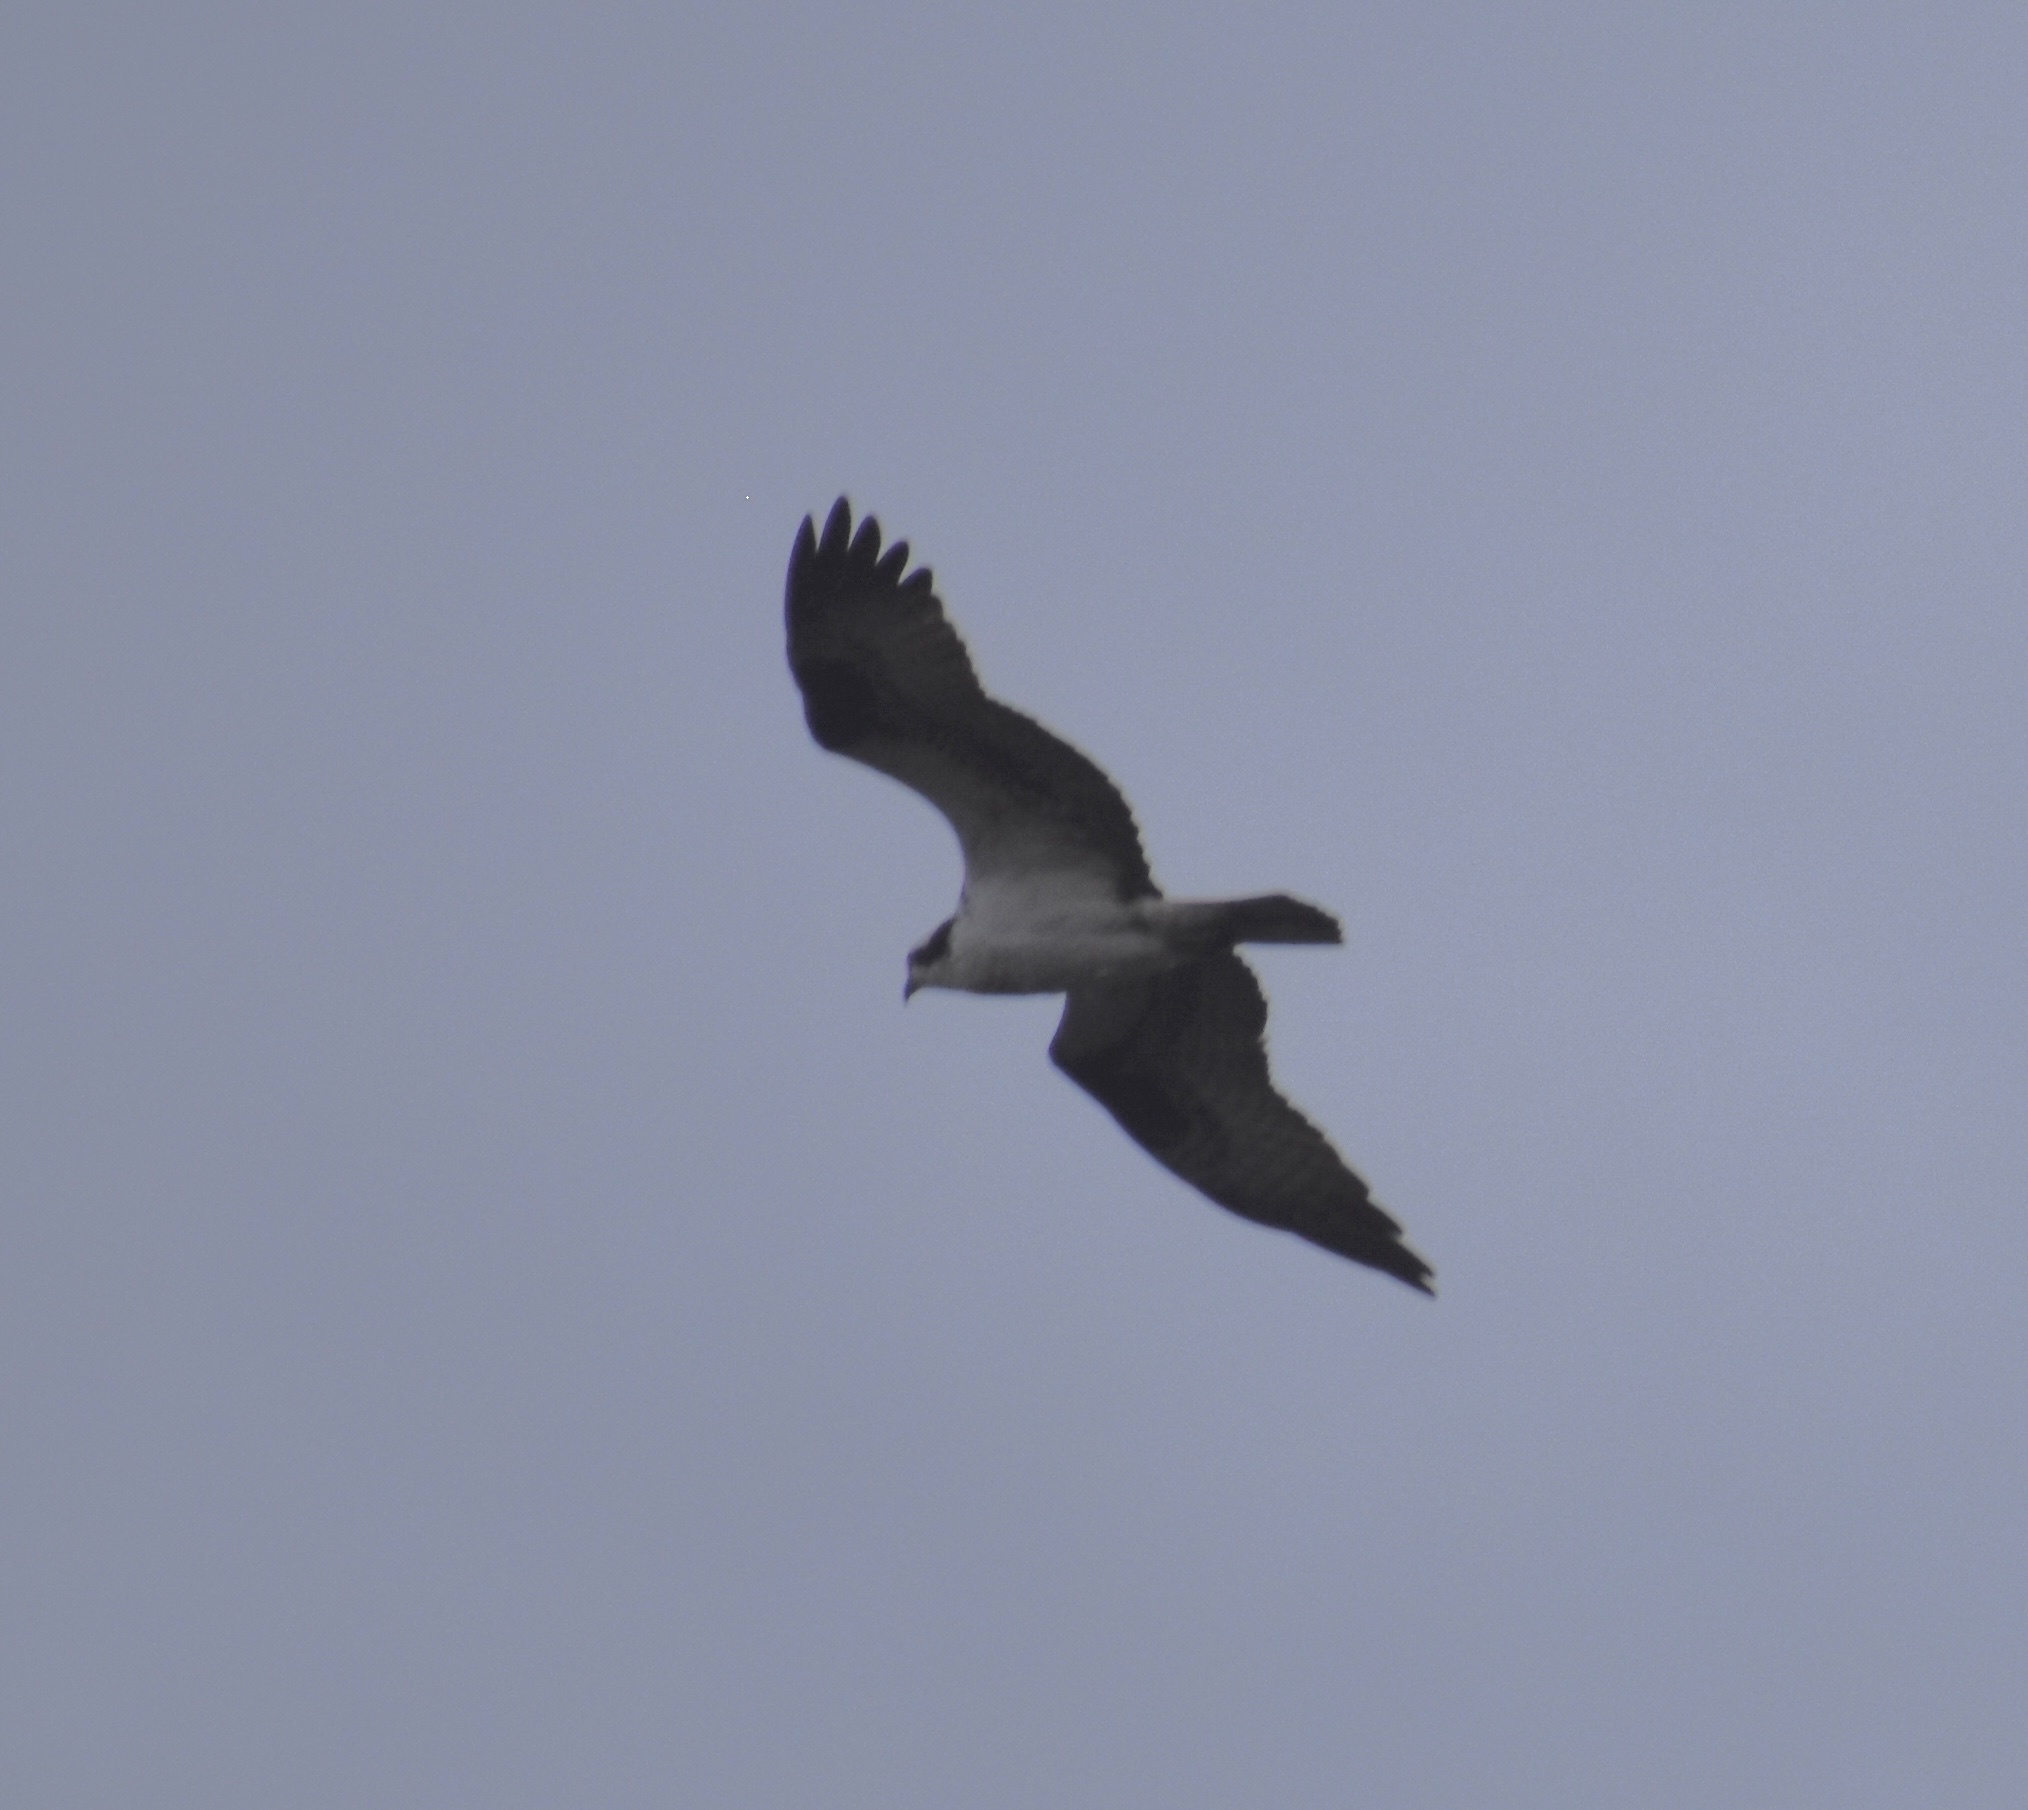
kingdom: Animalia
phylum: Chordata
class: Aves
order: Accipitriformes
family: Pandionidae
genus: Pandion
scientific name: Pandion haliaetus
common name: Osprey
